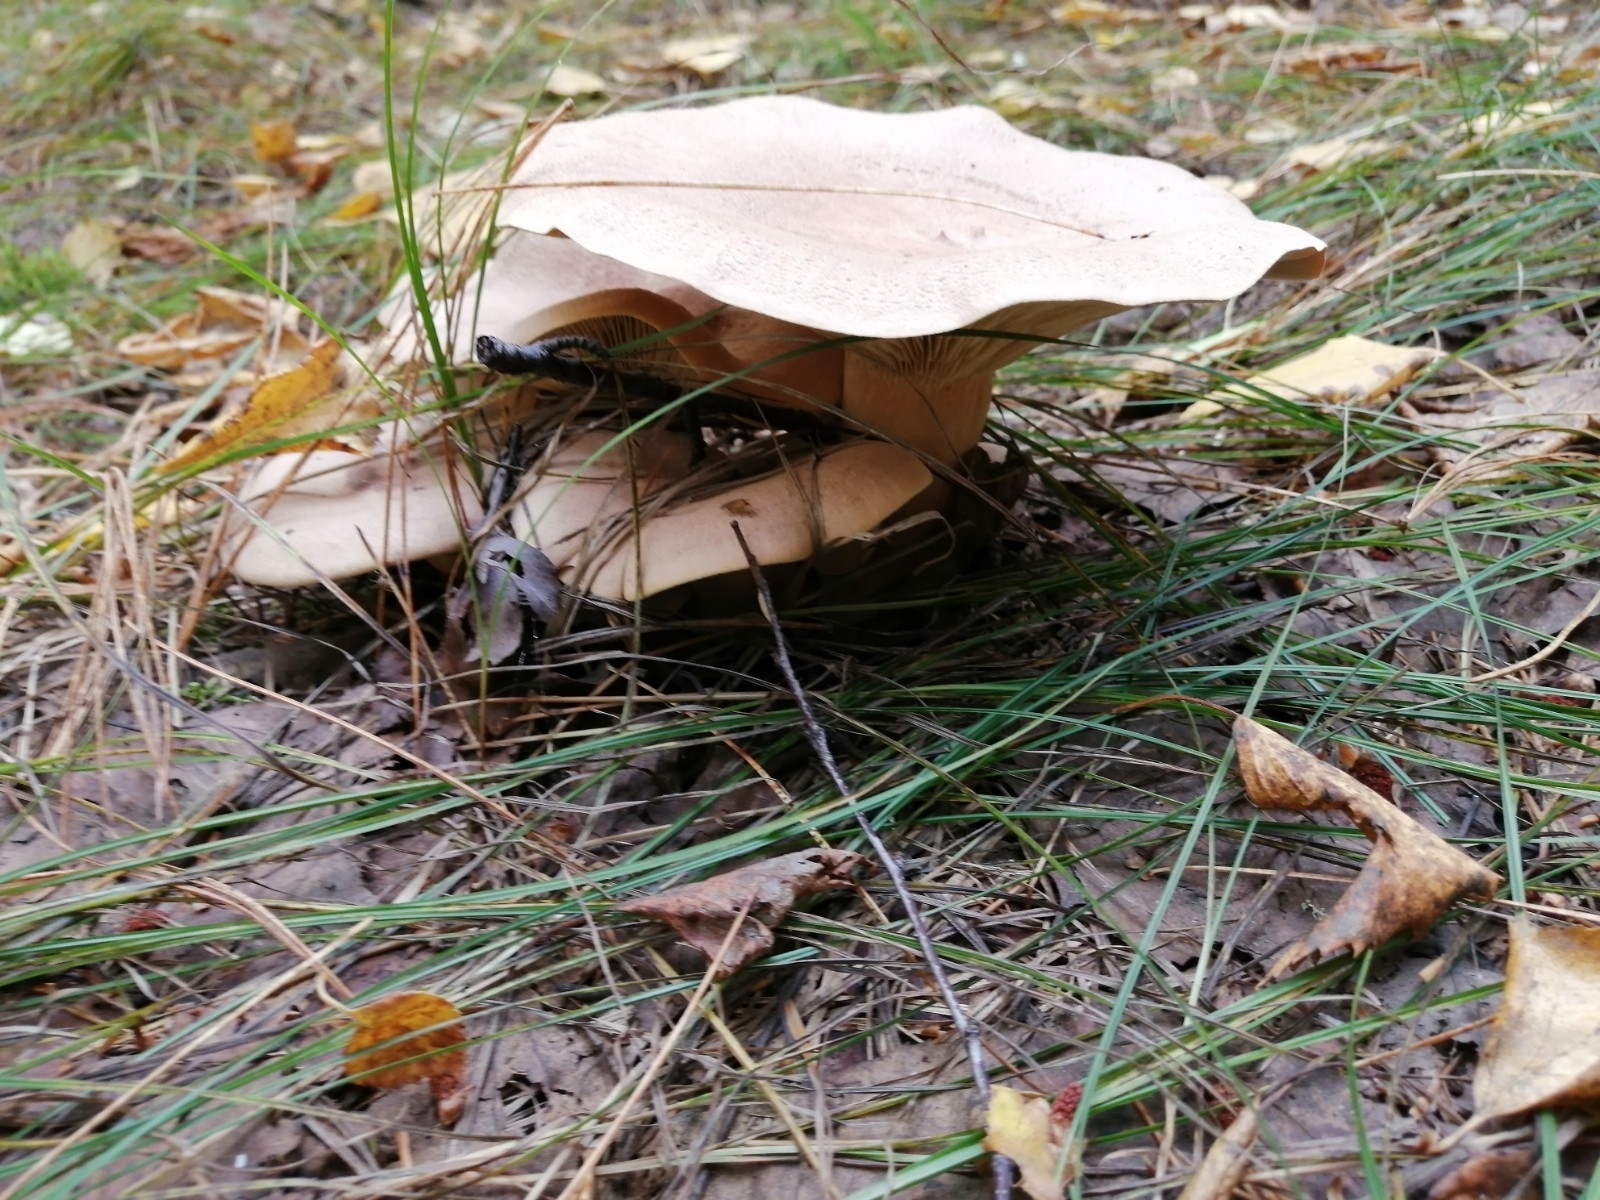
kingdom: Fungi
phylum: Basidiomycota
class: Agaricomycetes
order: Russulales
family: Russulaceae
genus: Lactarius
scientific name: Lactarius helvus
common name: Fenugreek milkcap
